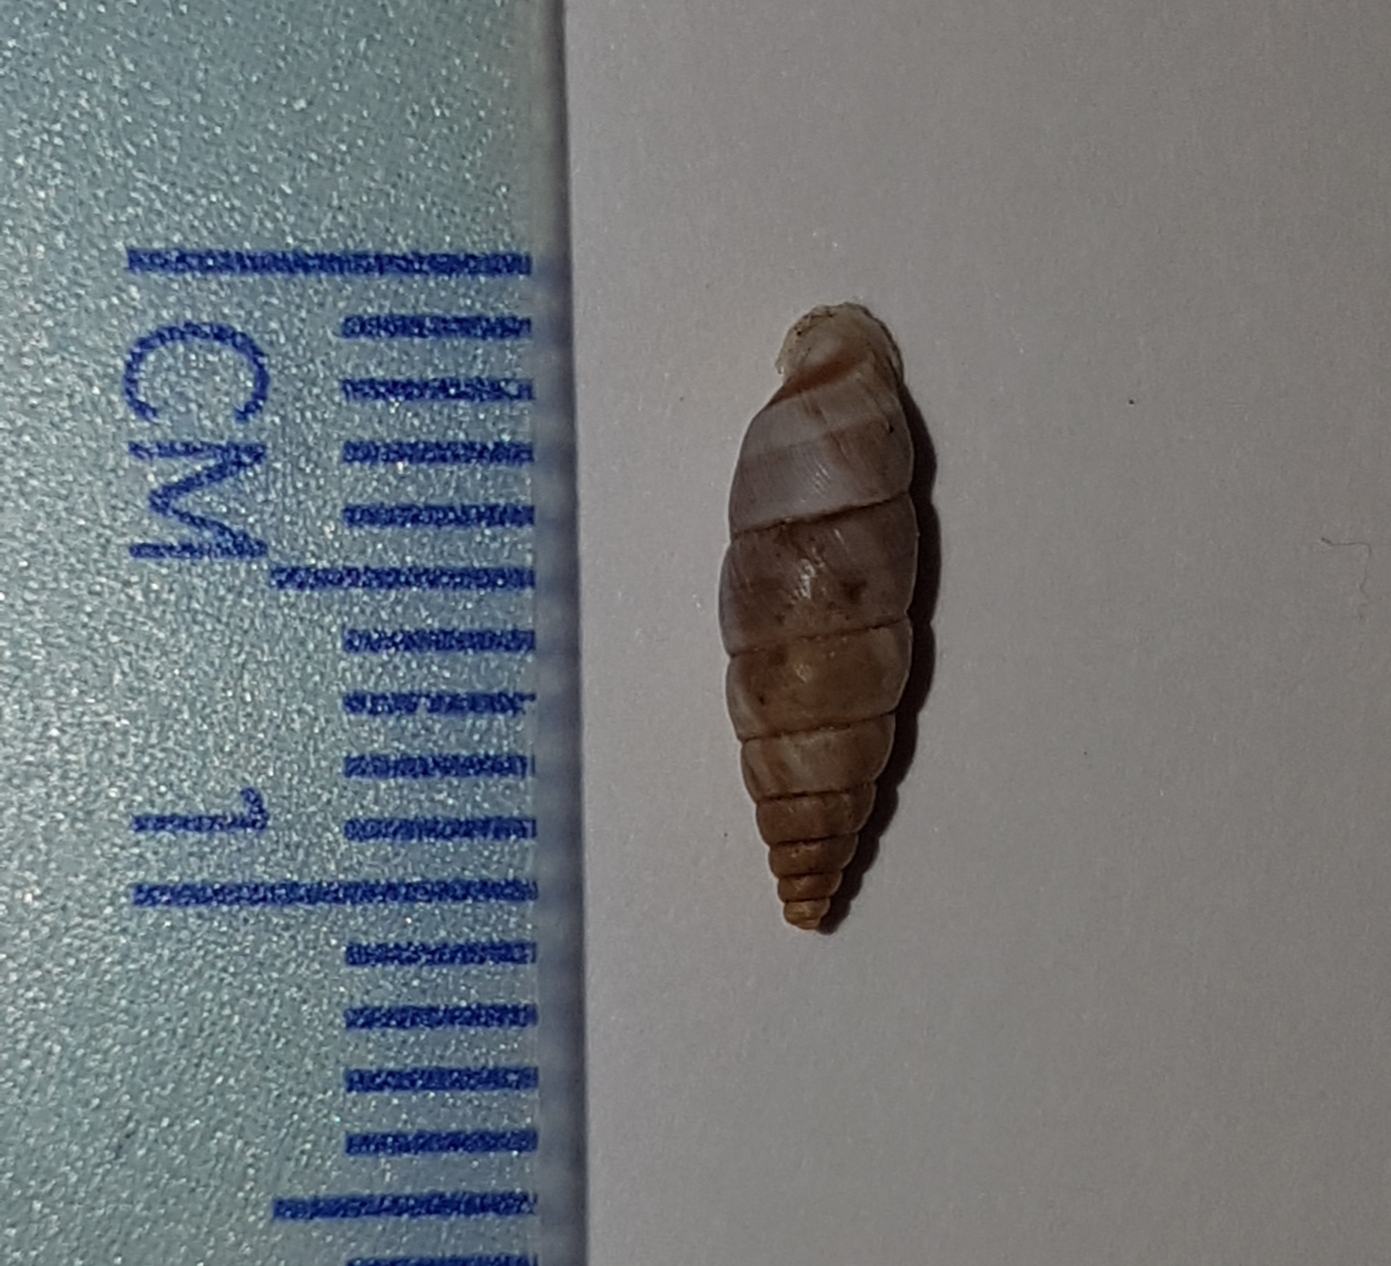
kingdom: Animalia
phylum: Mollusca
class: Gastropoda
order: Stylommatophora
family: Chondrinidae
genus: Solatopupa
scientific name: Solatopupa similis
